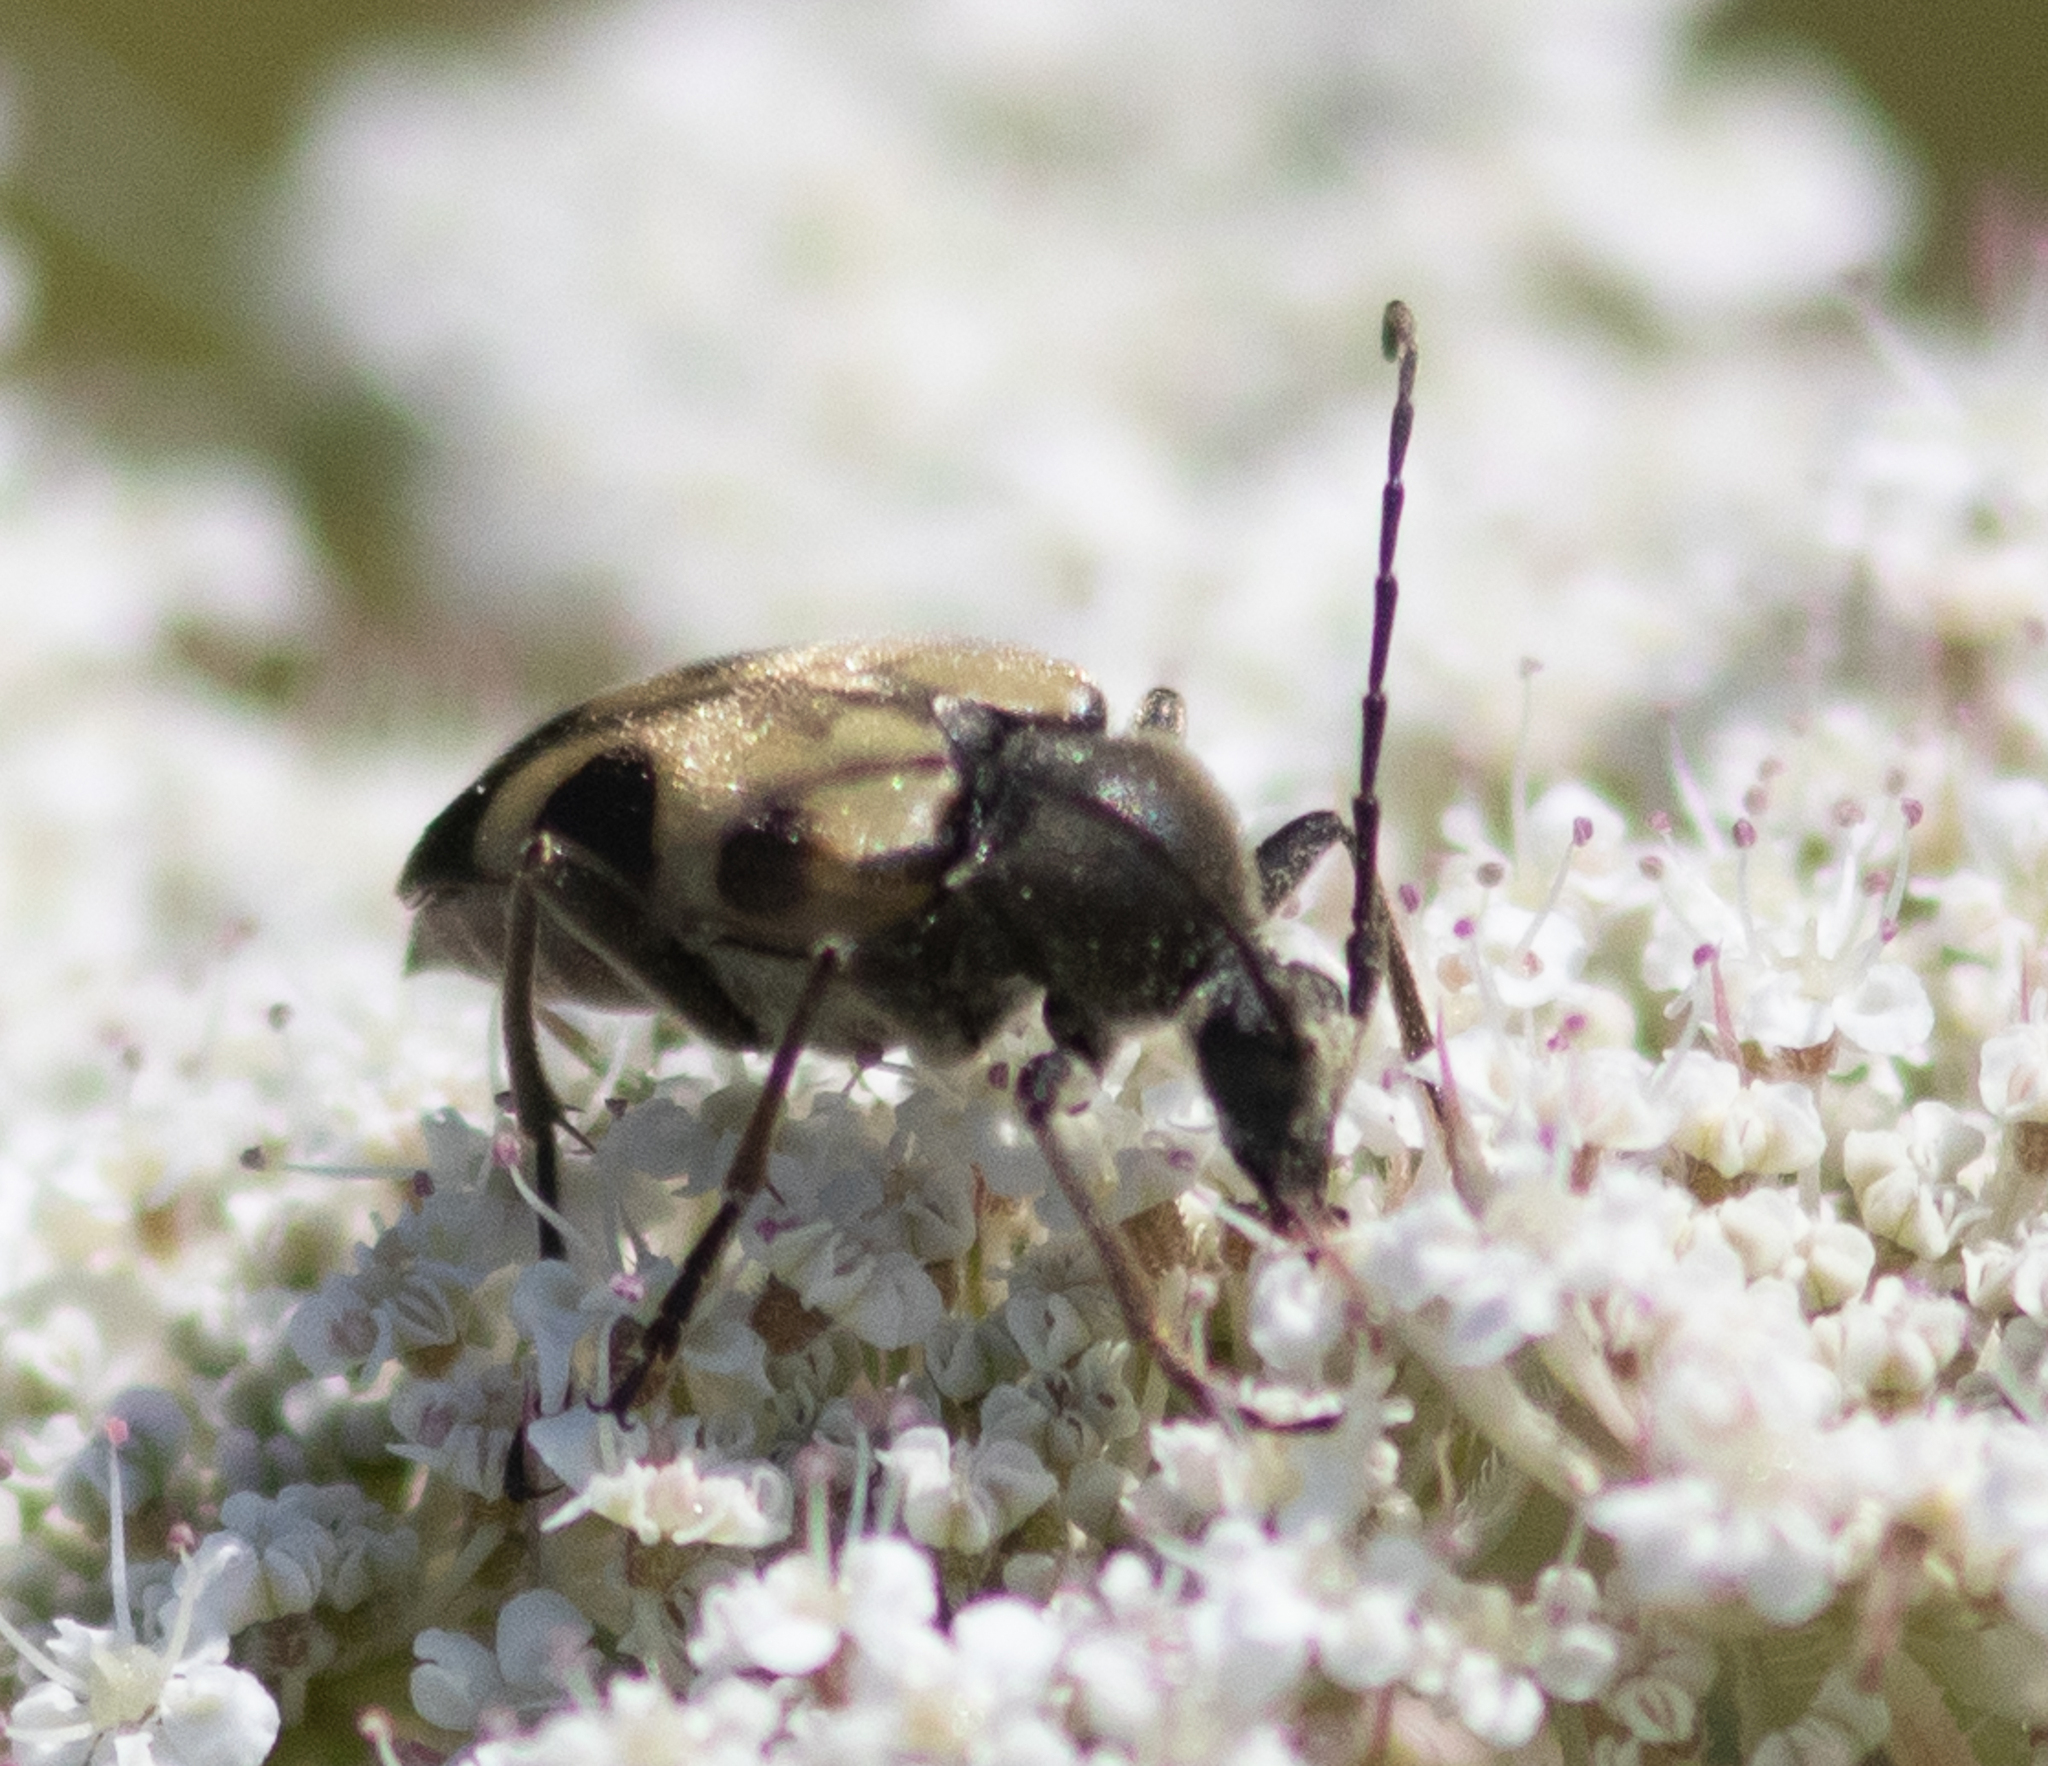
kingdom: Animalia
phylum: Arthropoda
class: Insecta
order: Coleoptera
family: Cerambycidae
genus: Judolia
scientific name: Judolia cordifera
